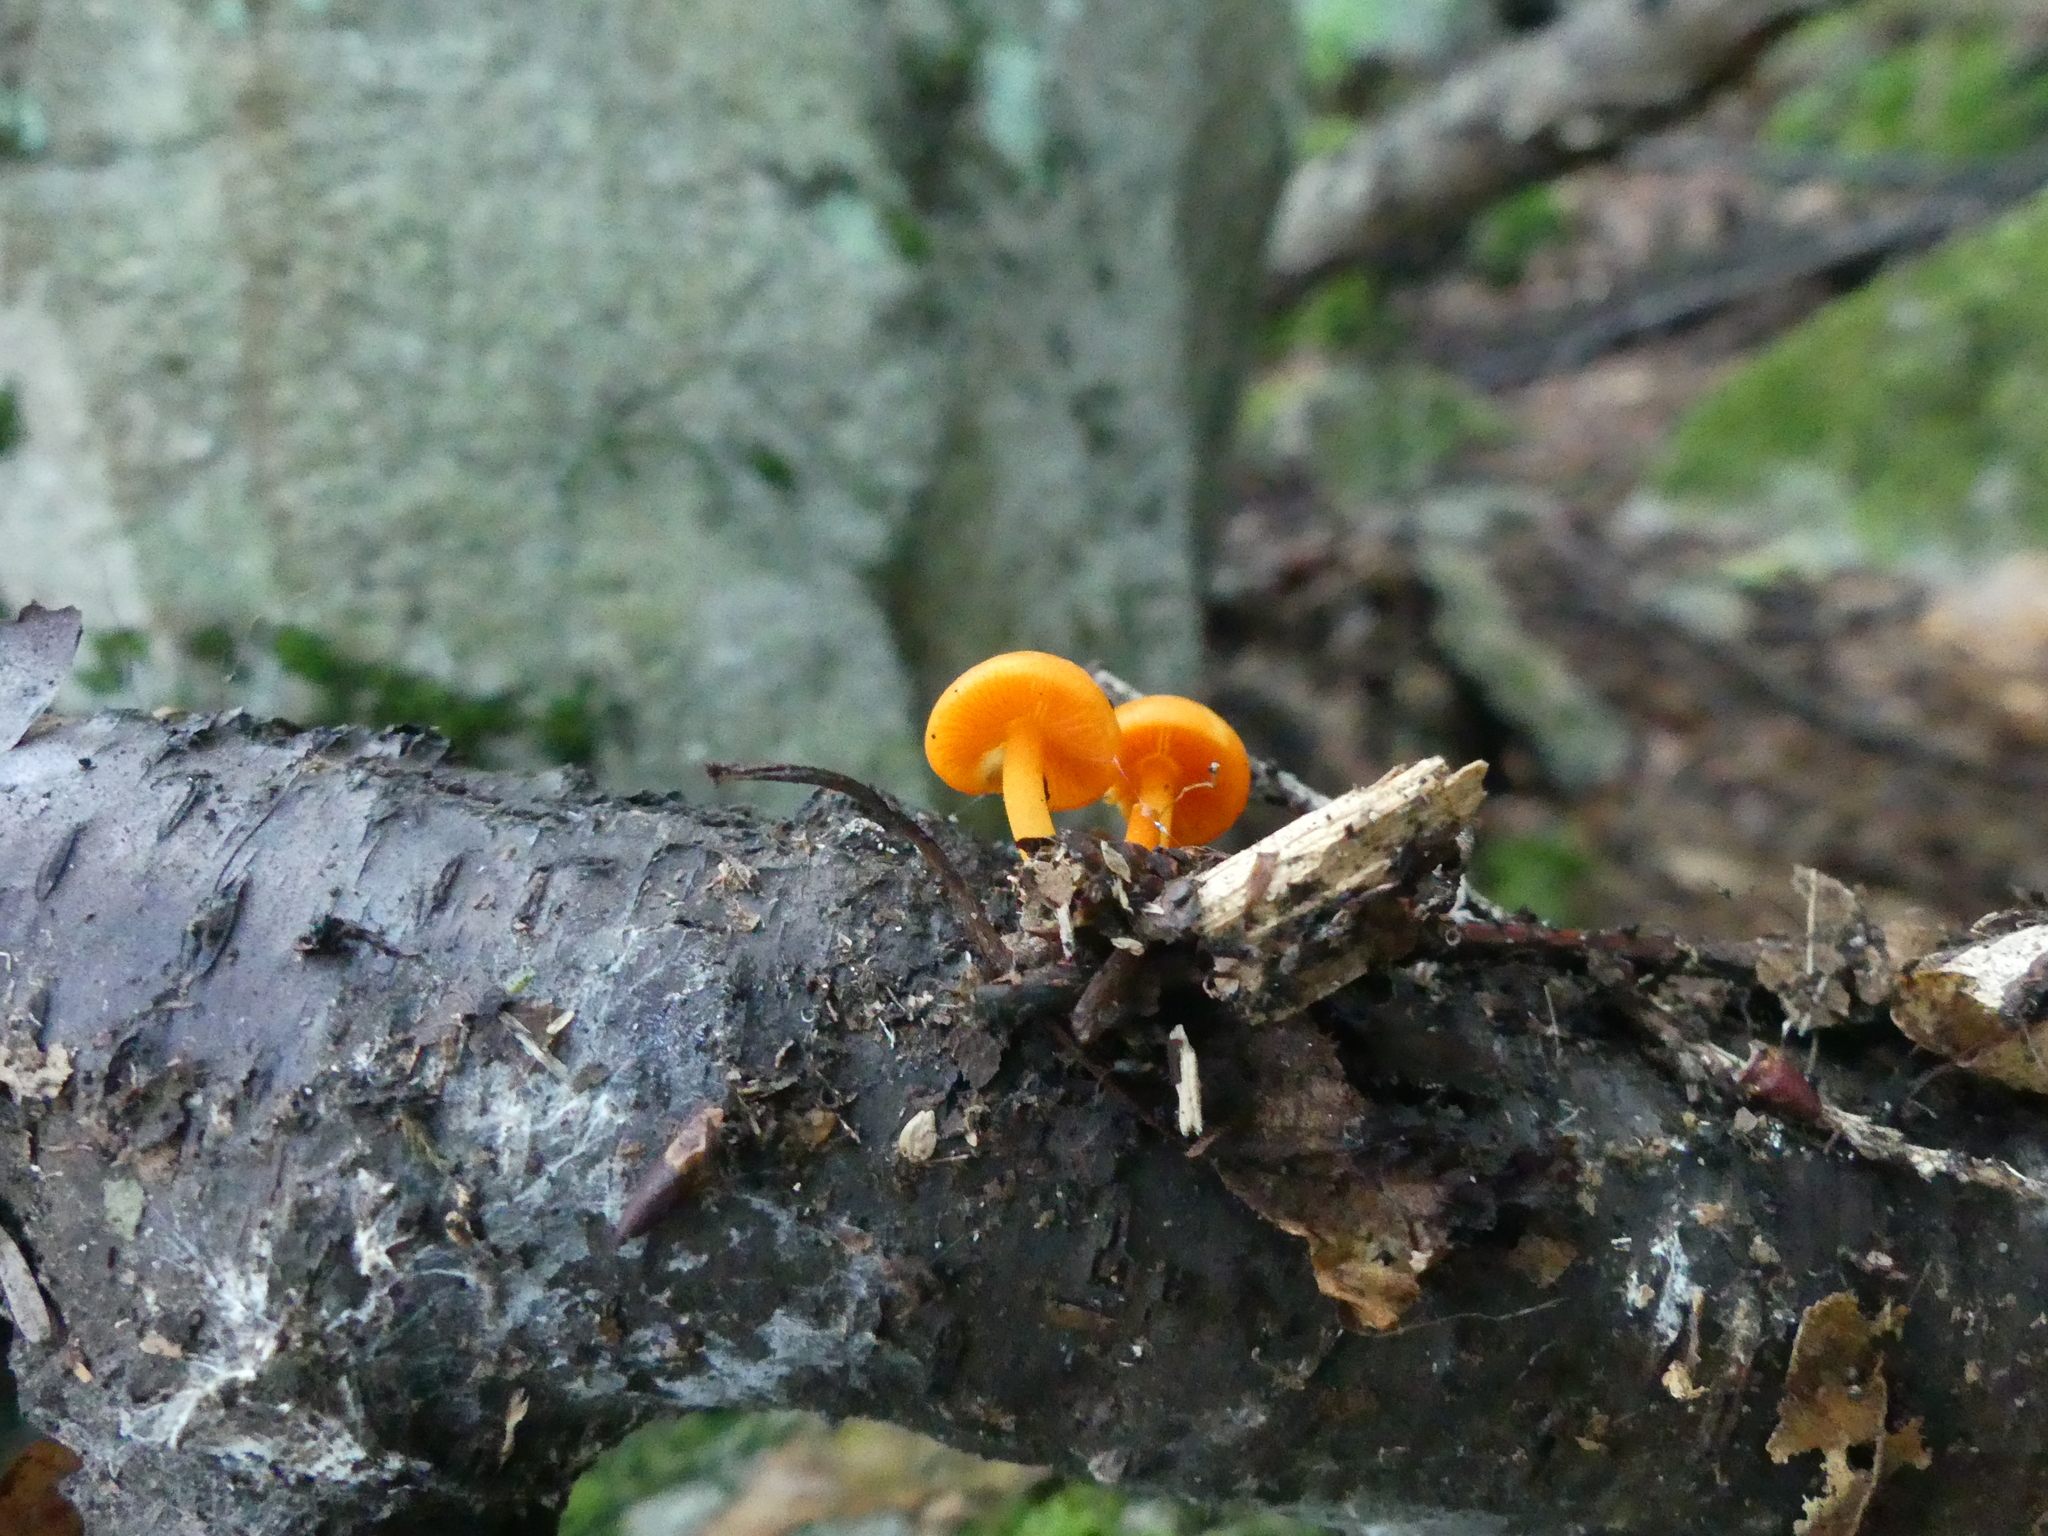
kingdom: Fungi
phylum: Basidiomycota
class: Agaricomycetes
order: Agaricales
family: Mycenaceae
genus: Mycena
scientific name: Mycena leaiana
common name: Orange mycena
